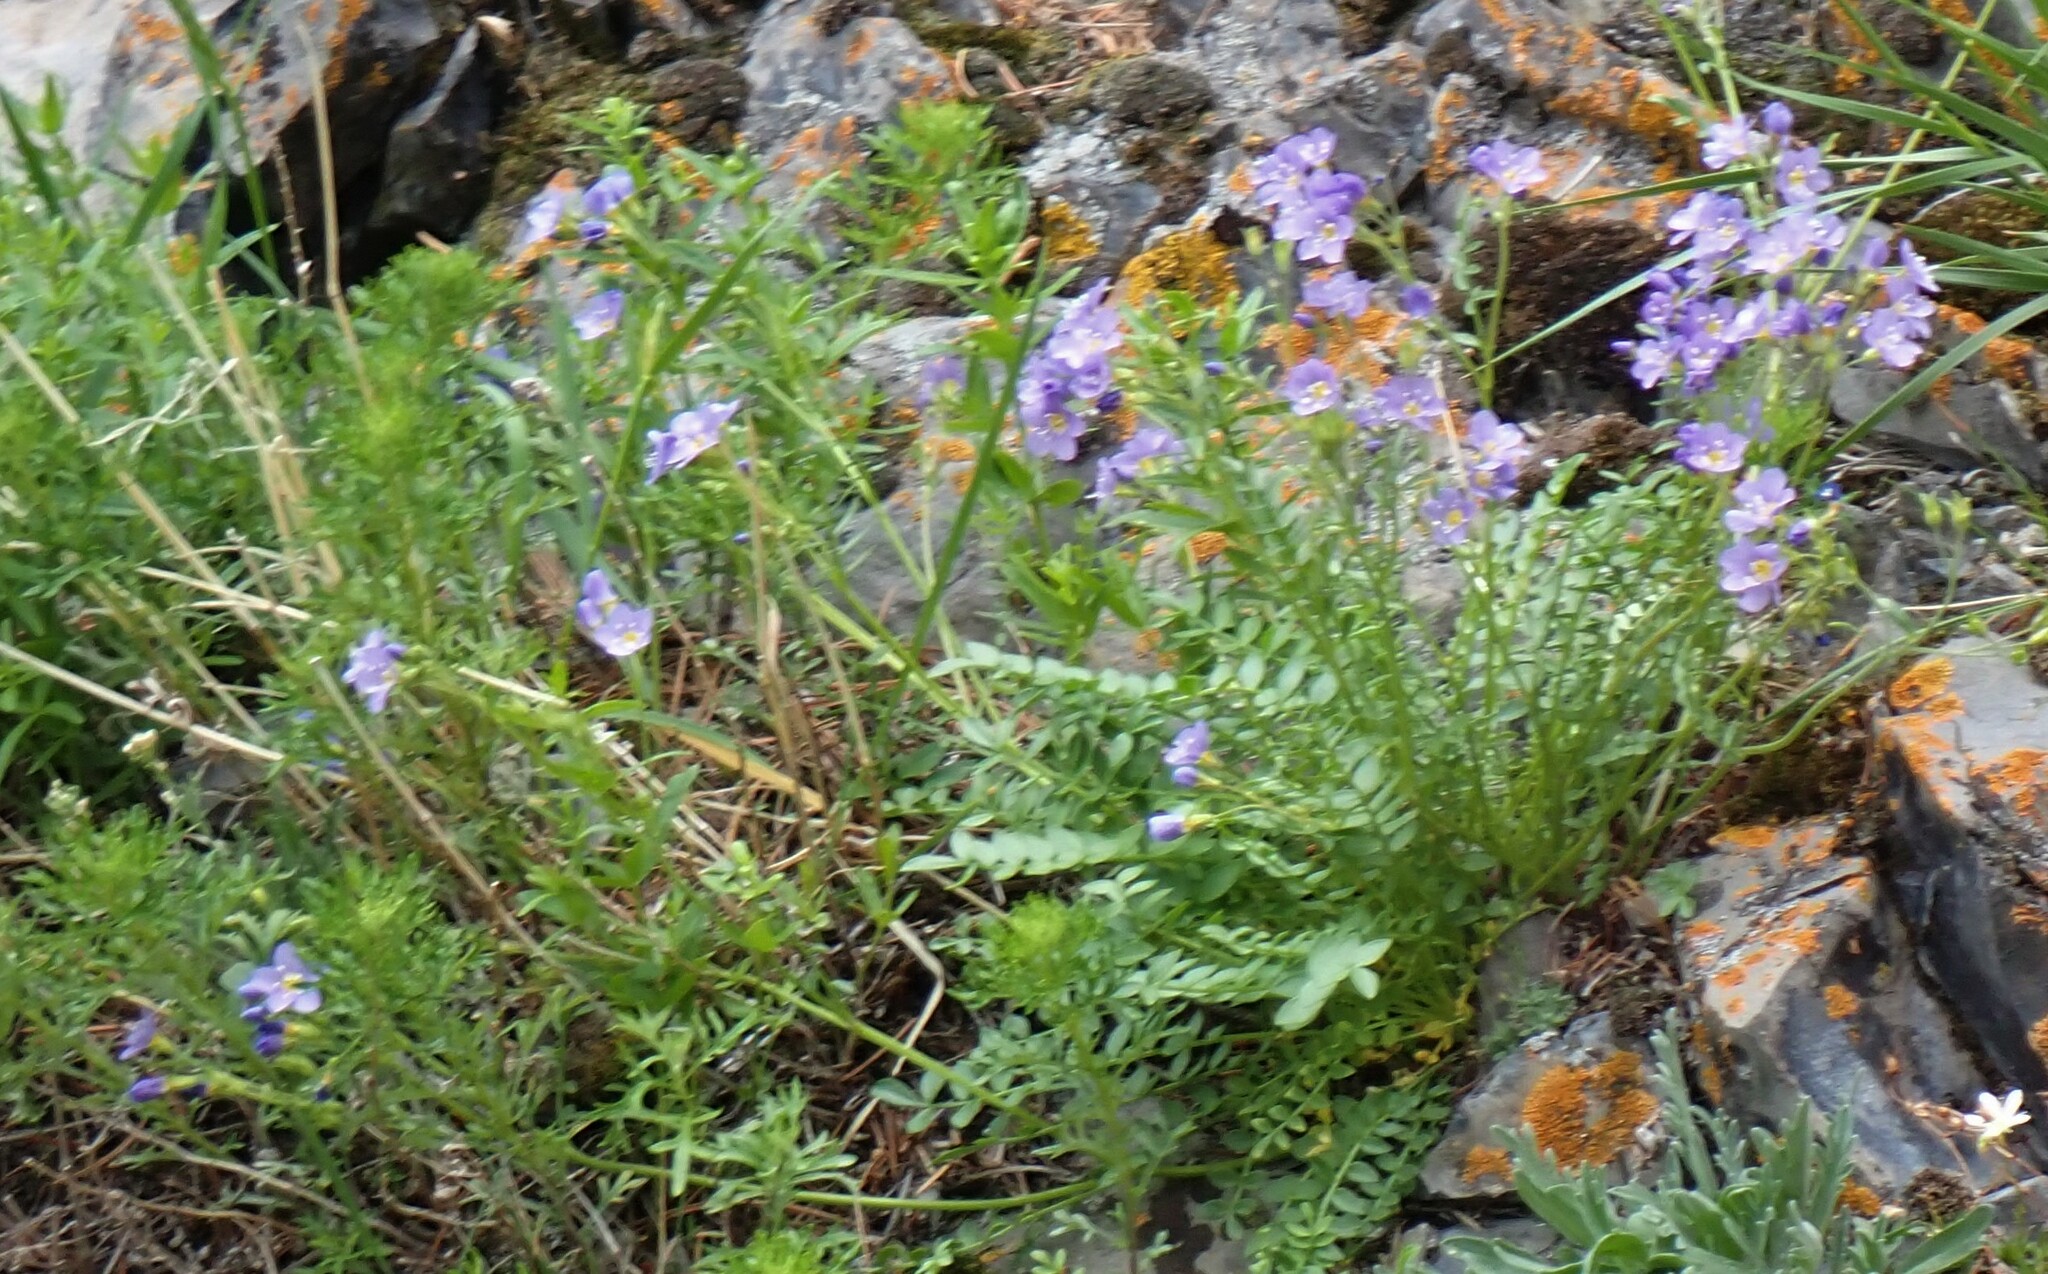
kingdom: Plantae
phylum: Tracheophyta
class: Magnoliopsida
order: Ericales
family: Polemoniaceae
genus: Polemonium
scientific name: Polemonium pulcherrimum
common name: Short jacob's-ladder
